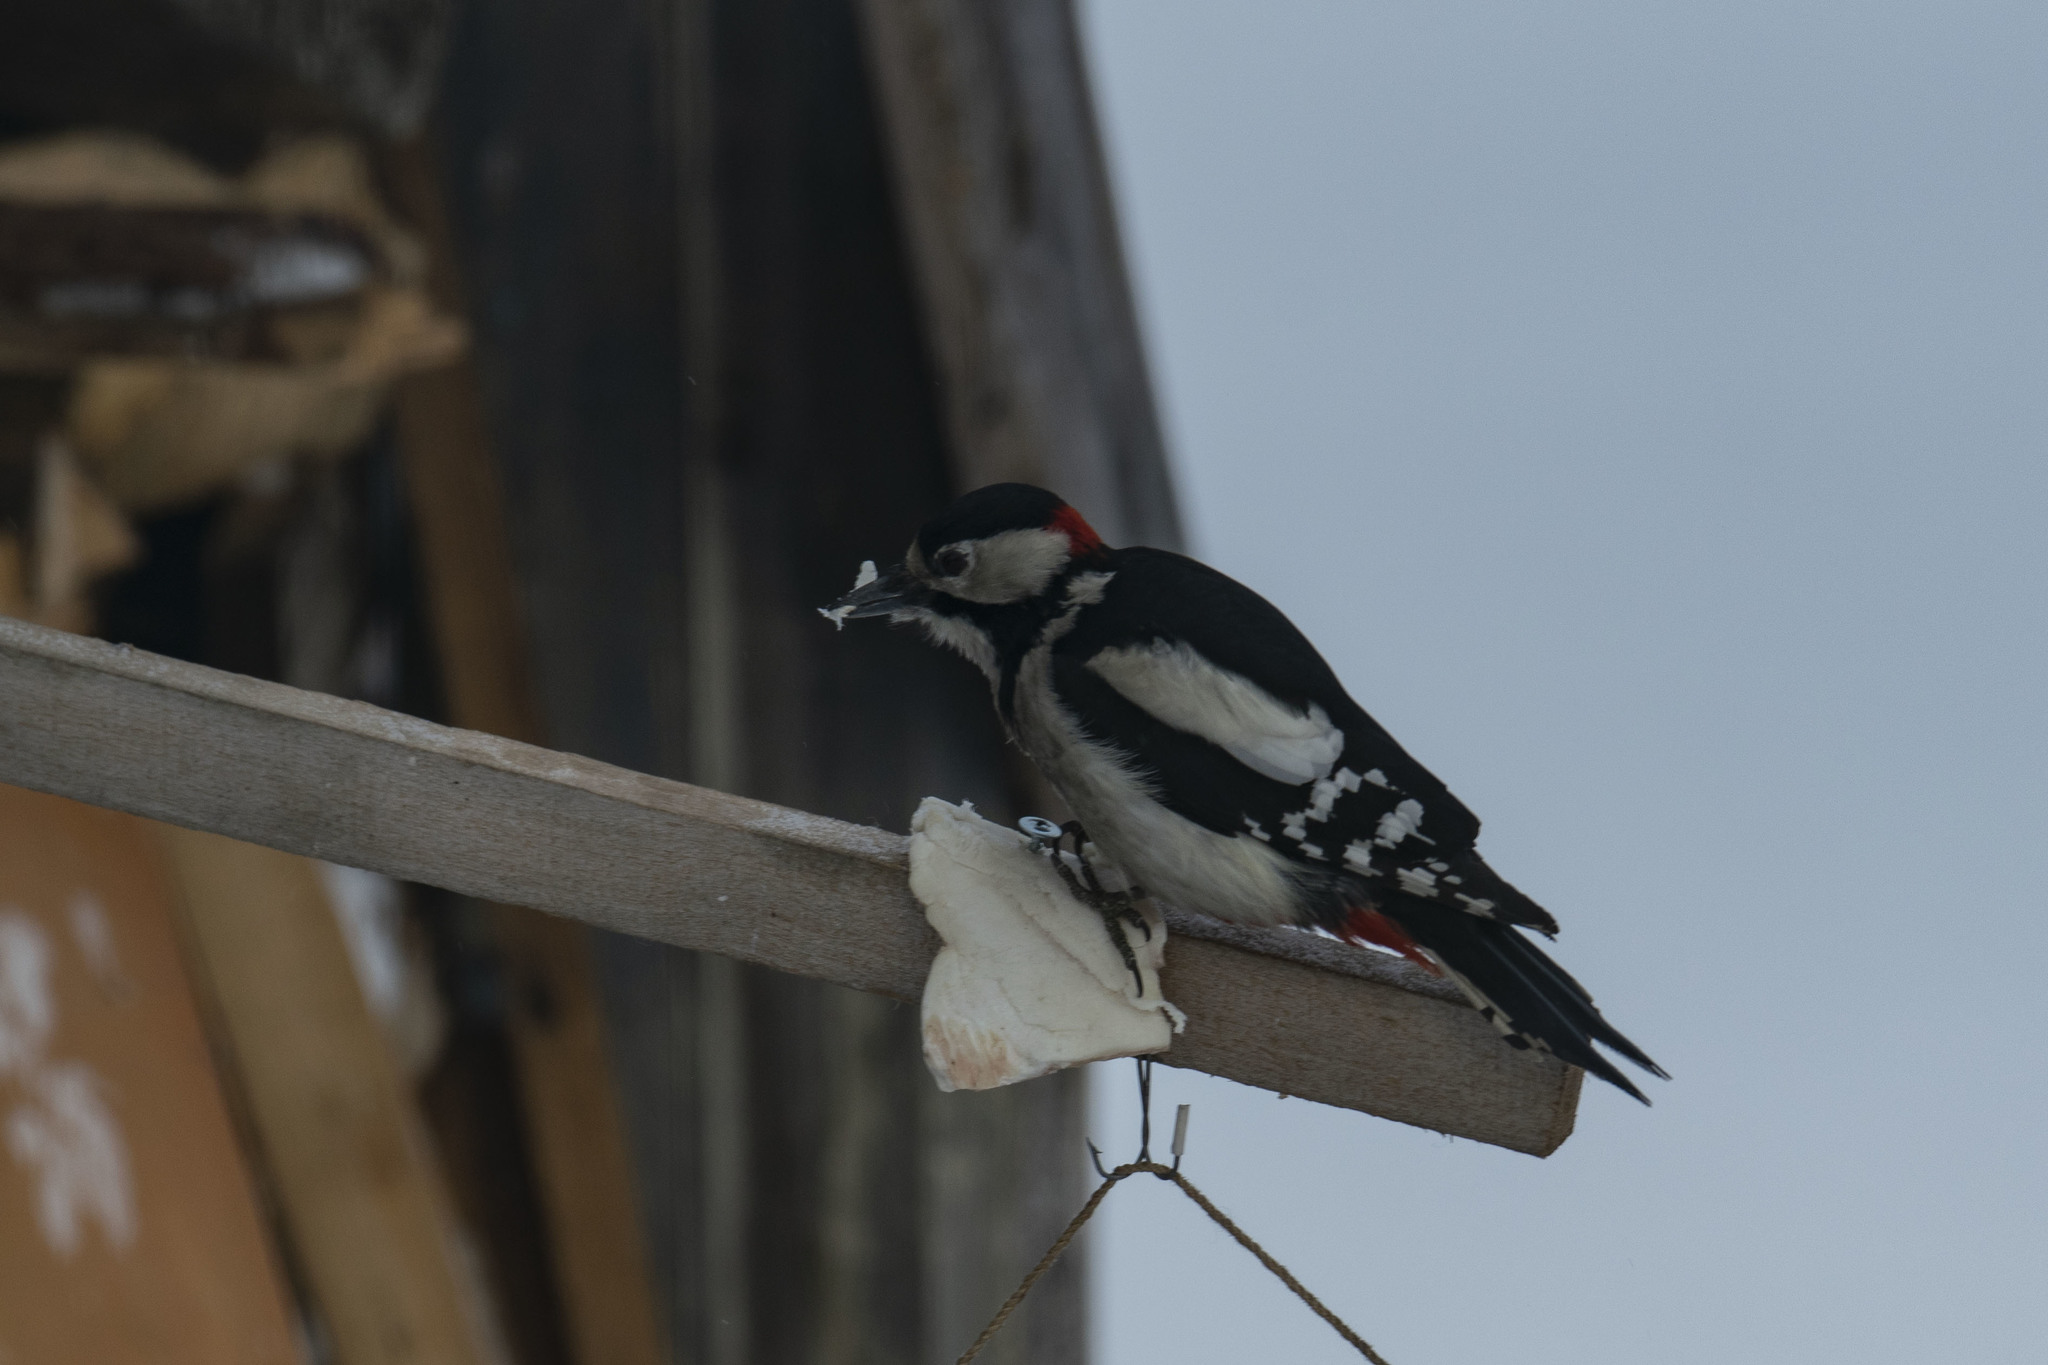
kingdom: Animalia
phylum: Chordata
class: Aves
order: Piciformes
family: Picidae
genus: Dendrocopos
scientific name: Dendrocopos major
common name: Great spotted woodpecker
